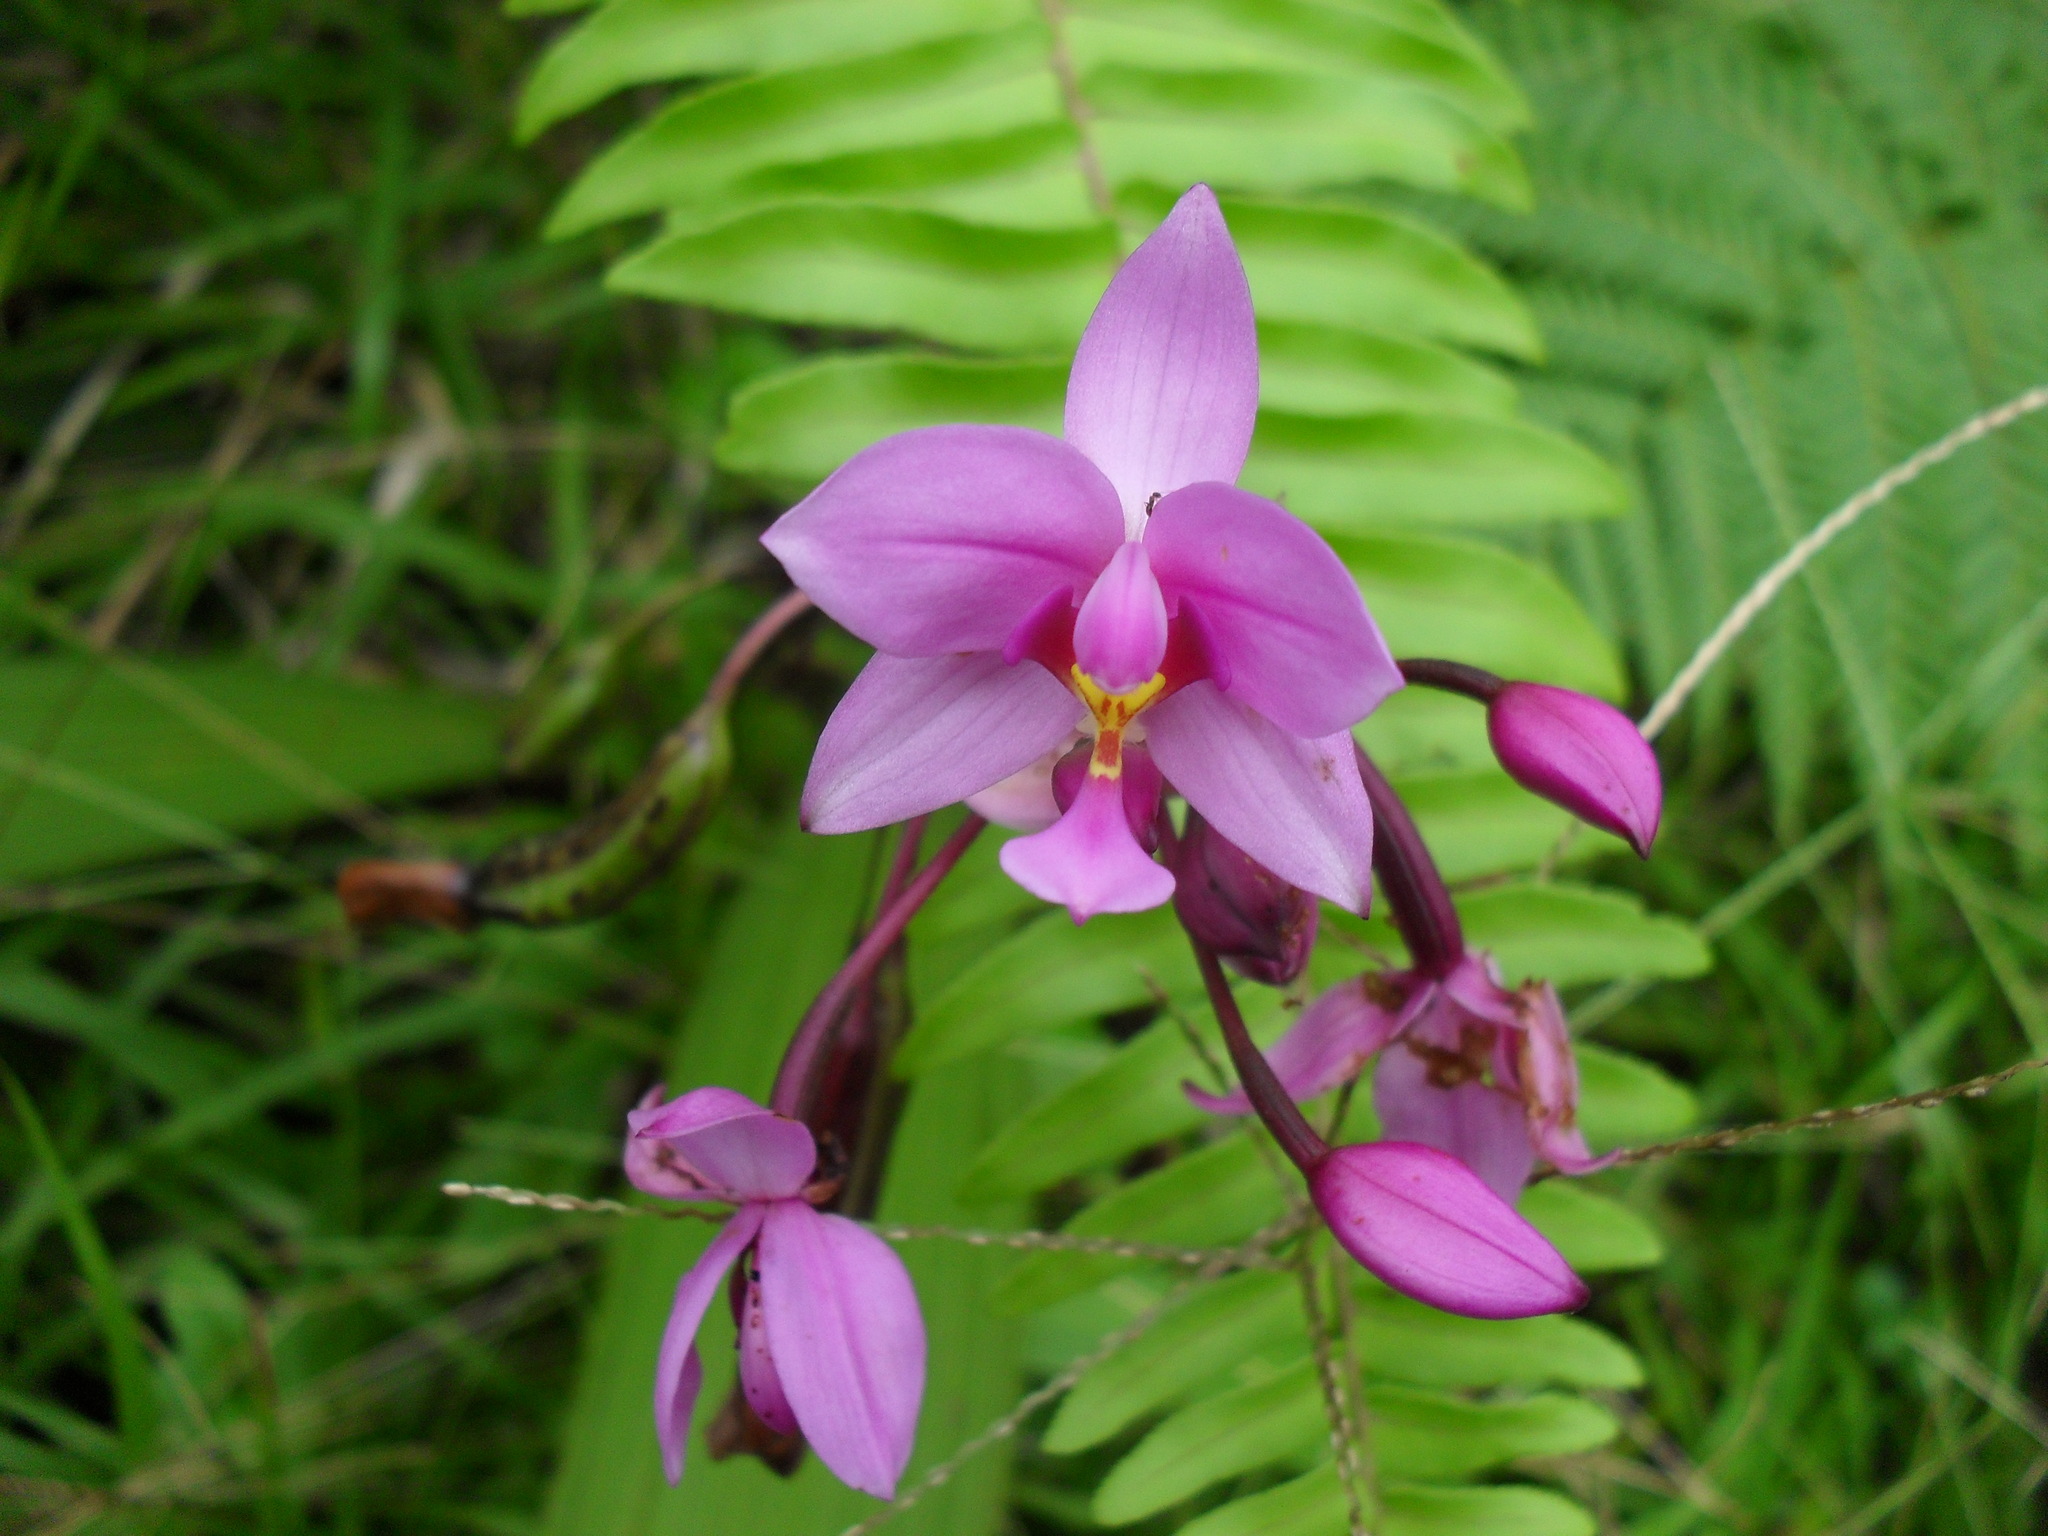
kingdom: Plantae
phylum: Tracheophyta
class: Liliopsida
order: Asparagales
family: Orchidaceae
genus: Spathoglottis
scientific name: Spathoglottis plicata
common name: Philippine ground orchid
